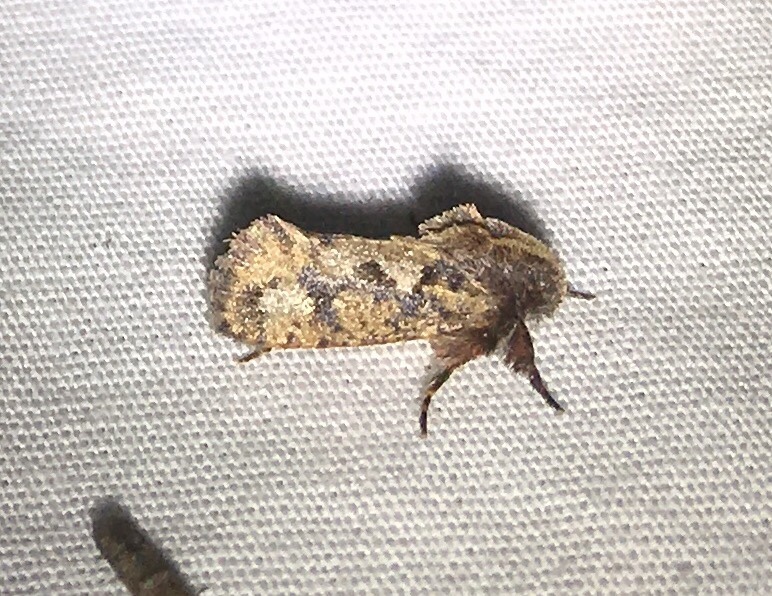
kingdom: Animalia
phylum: Arthropoda
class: Insecta
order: Lepidoptera
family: Tineidae
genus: Acrolophus
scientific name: Acrolophus walsinghami
